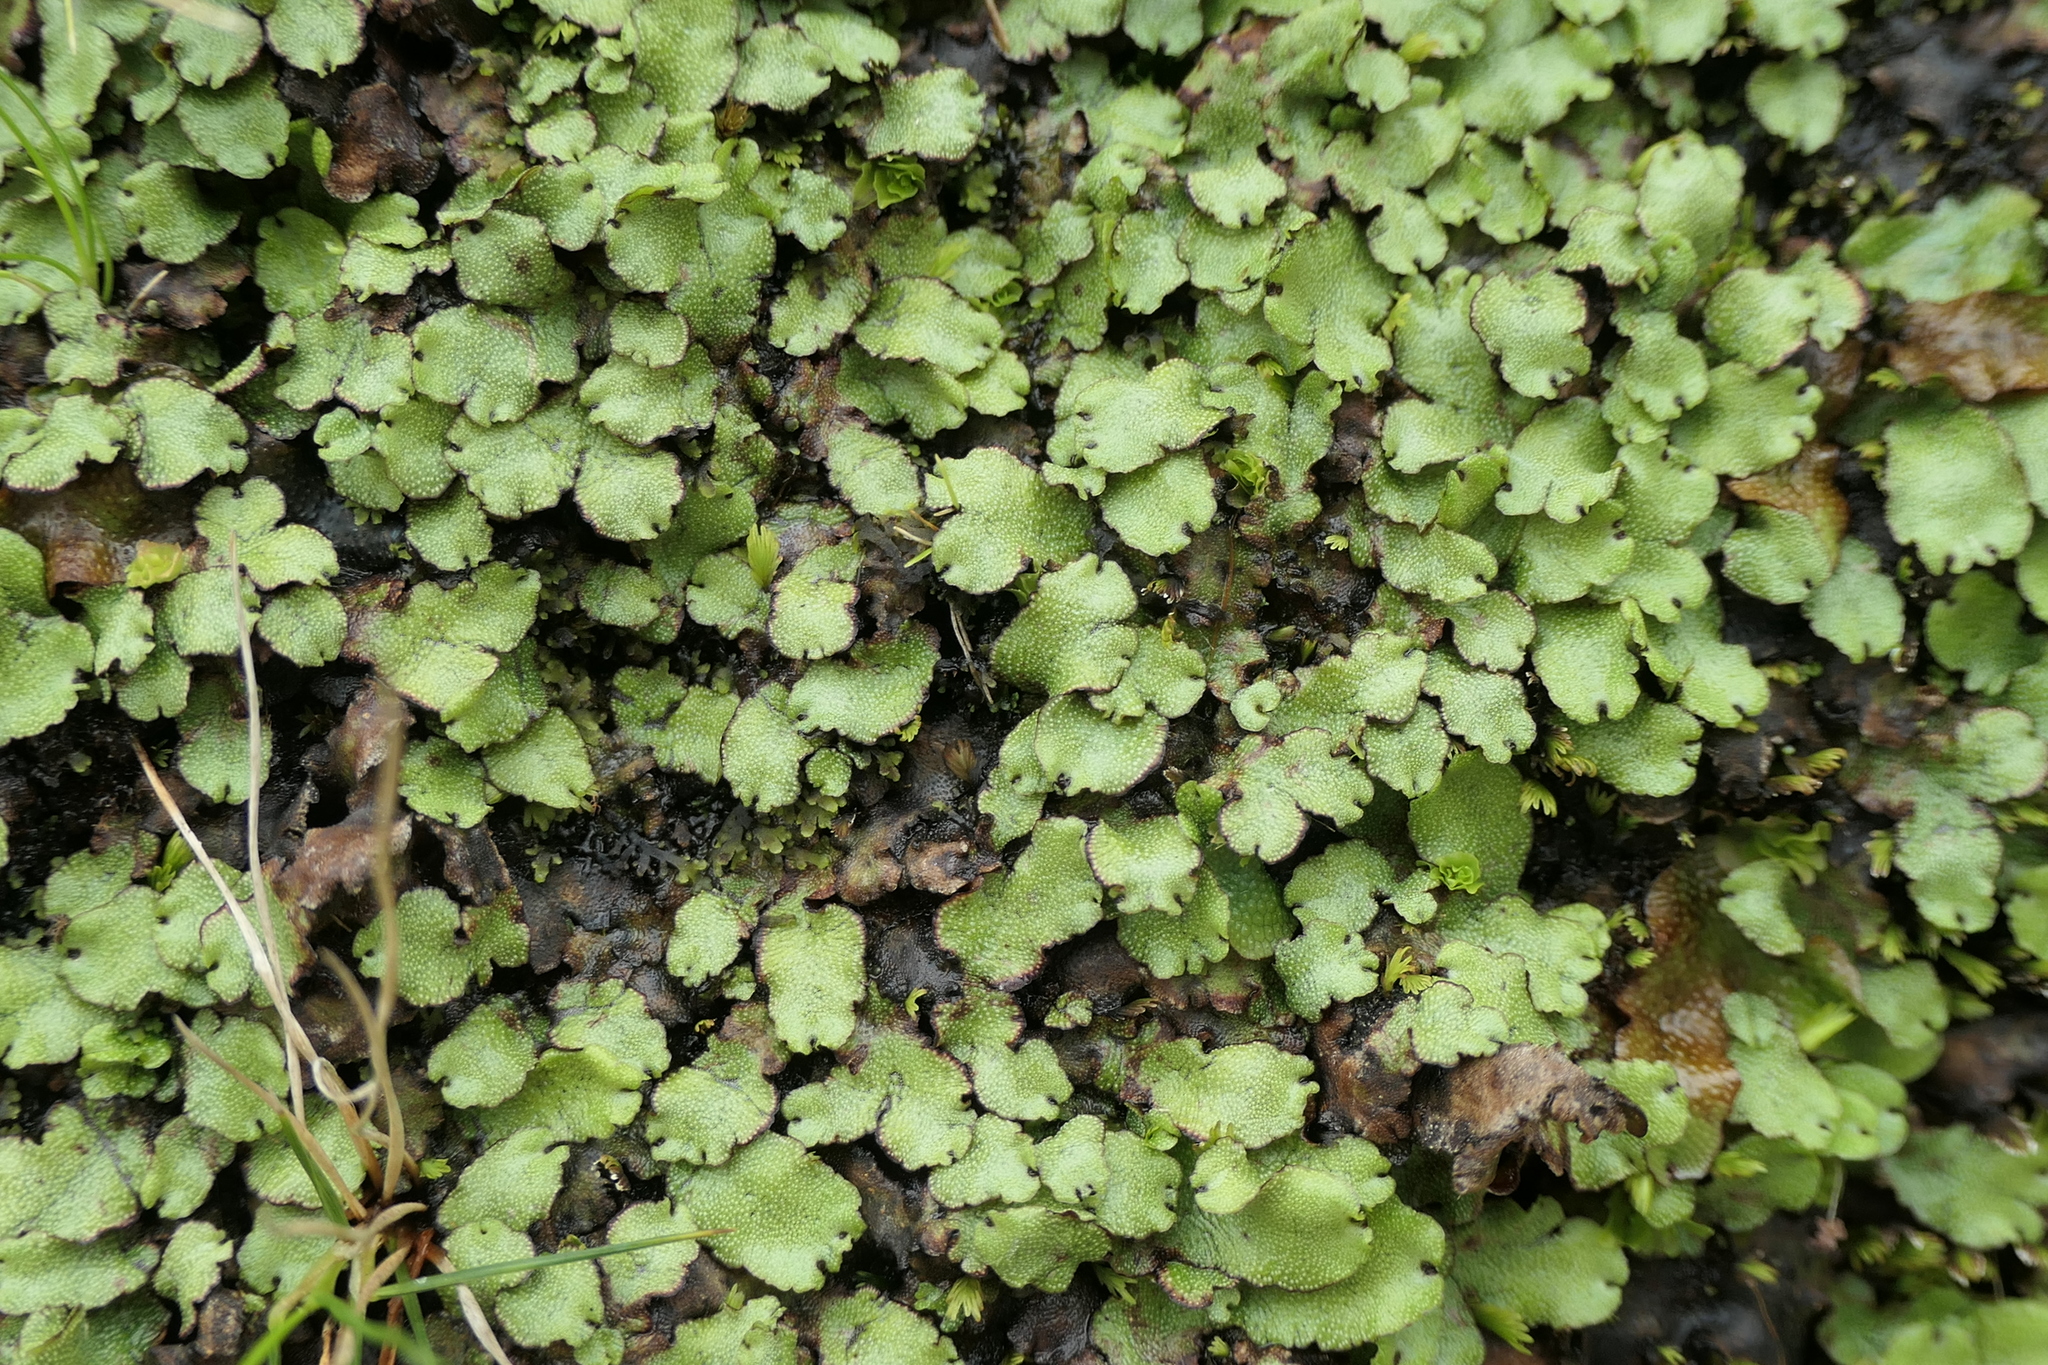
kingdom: Plantae
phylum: Marchantiophyta
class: Marchantiopsida
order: Marchantiales
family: Marchantiaceae
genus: Marchantia
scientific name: Marchantia paleacea
